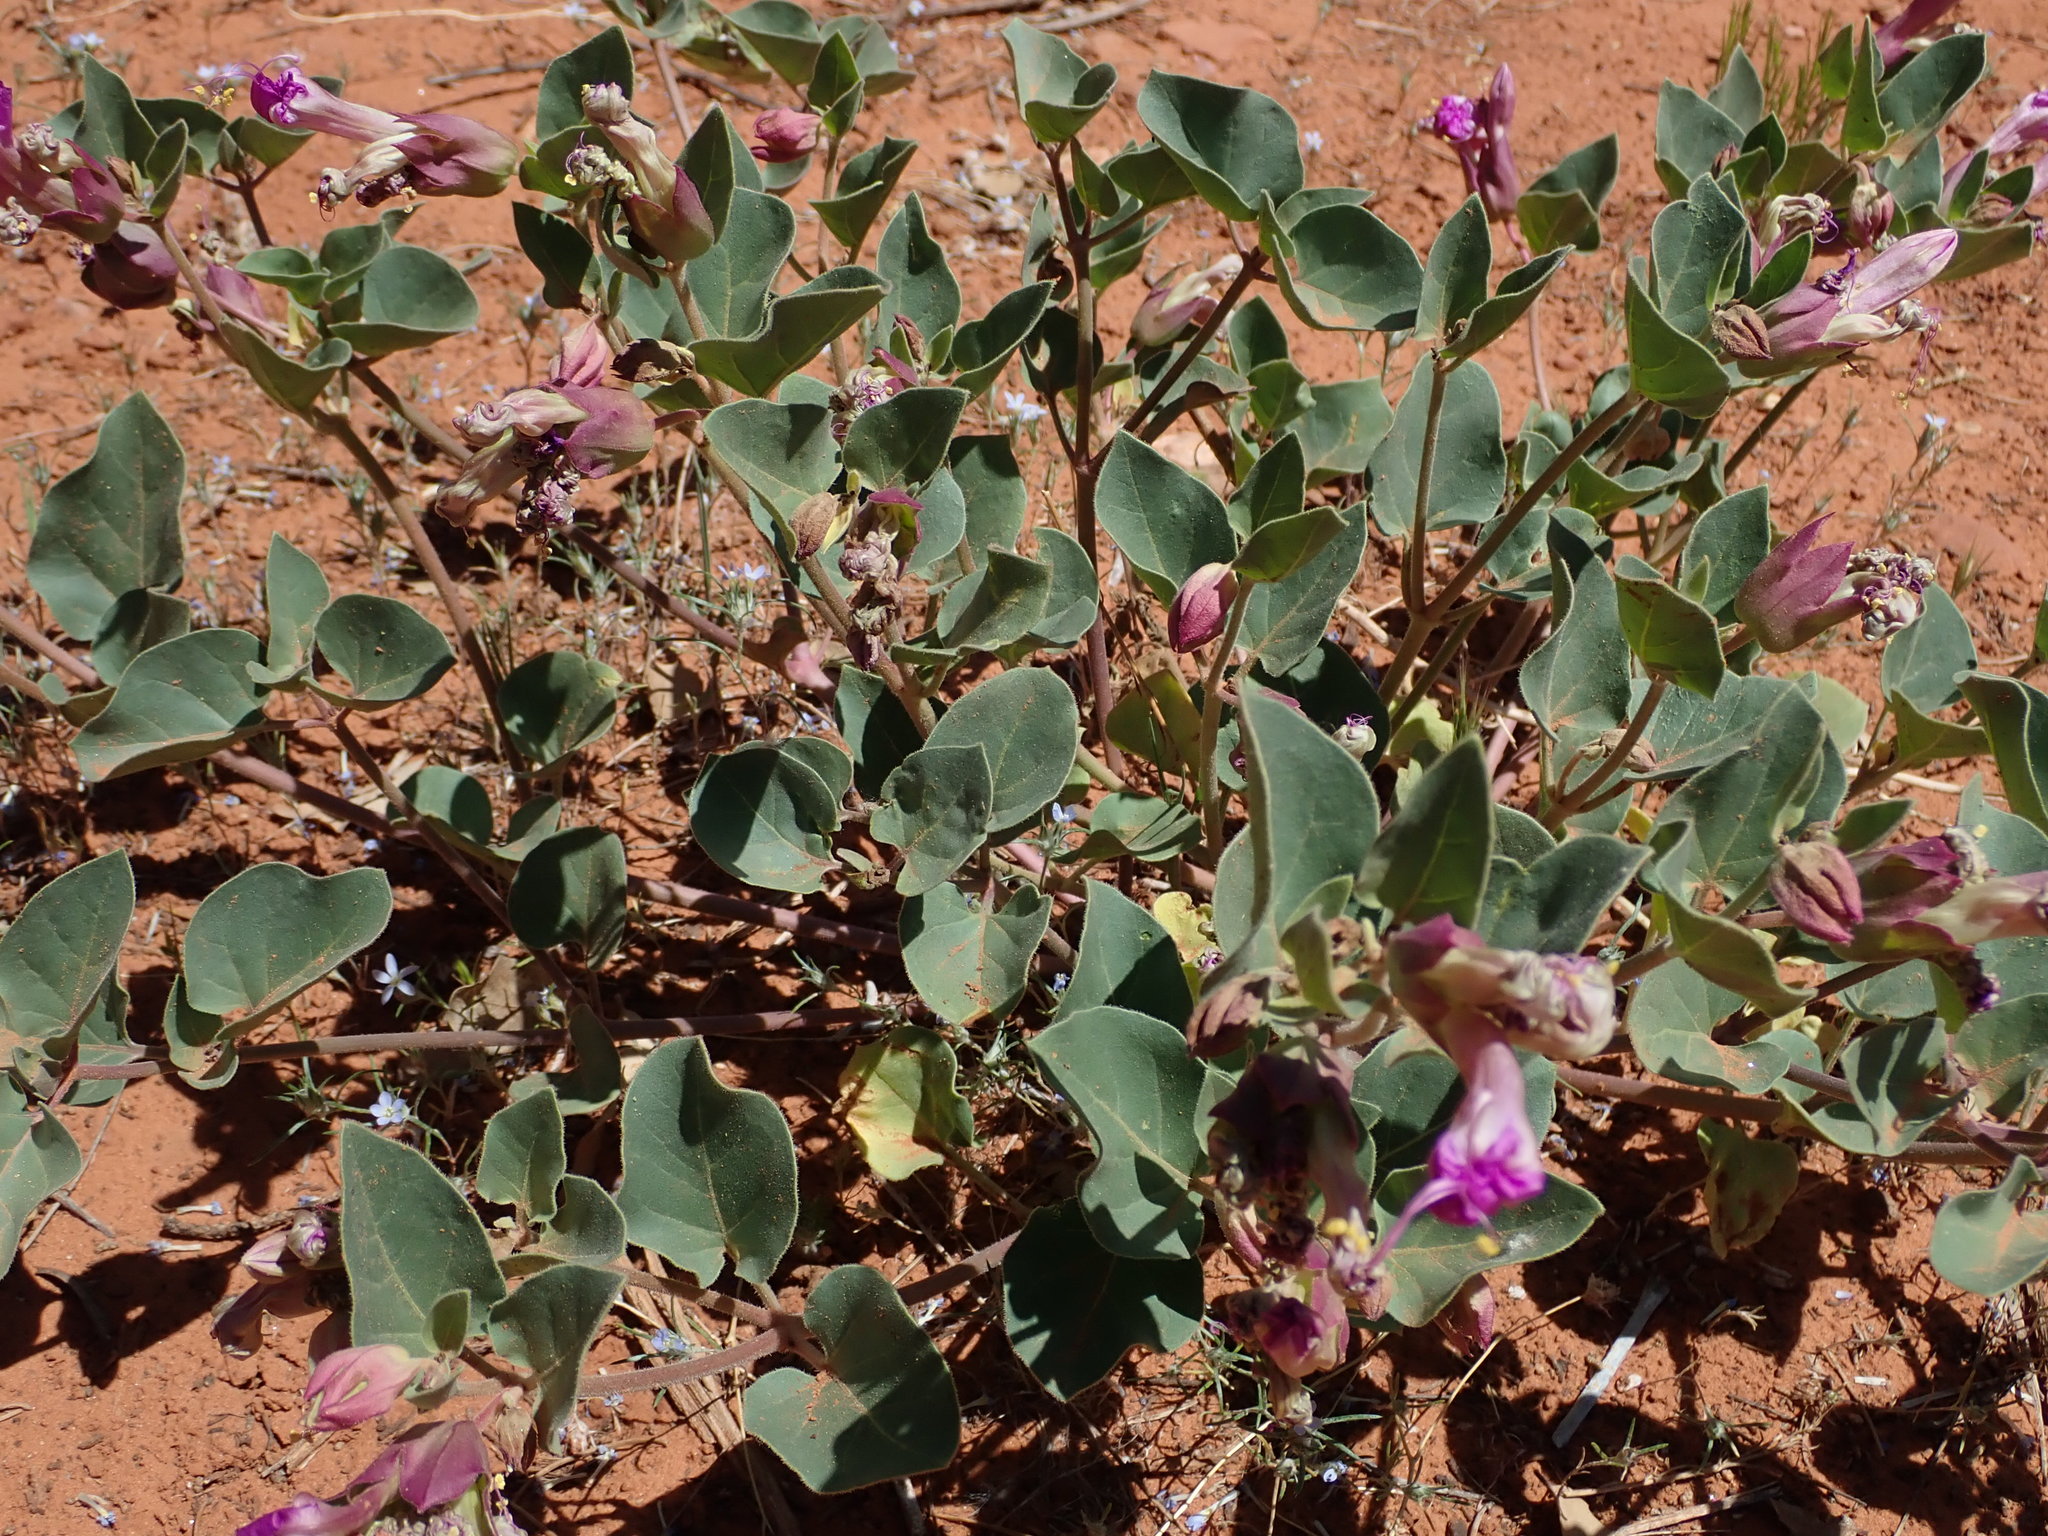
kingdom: Plantae
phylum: Tracheophyta
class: Magnoliopsida
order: Caryophyllales
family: Nyctaginaceae
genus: Mirabilis
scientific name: Mirabilis multiflora
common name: Froebel's four-o'clock
